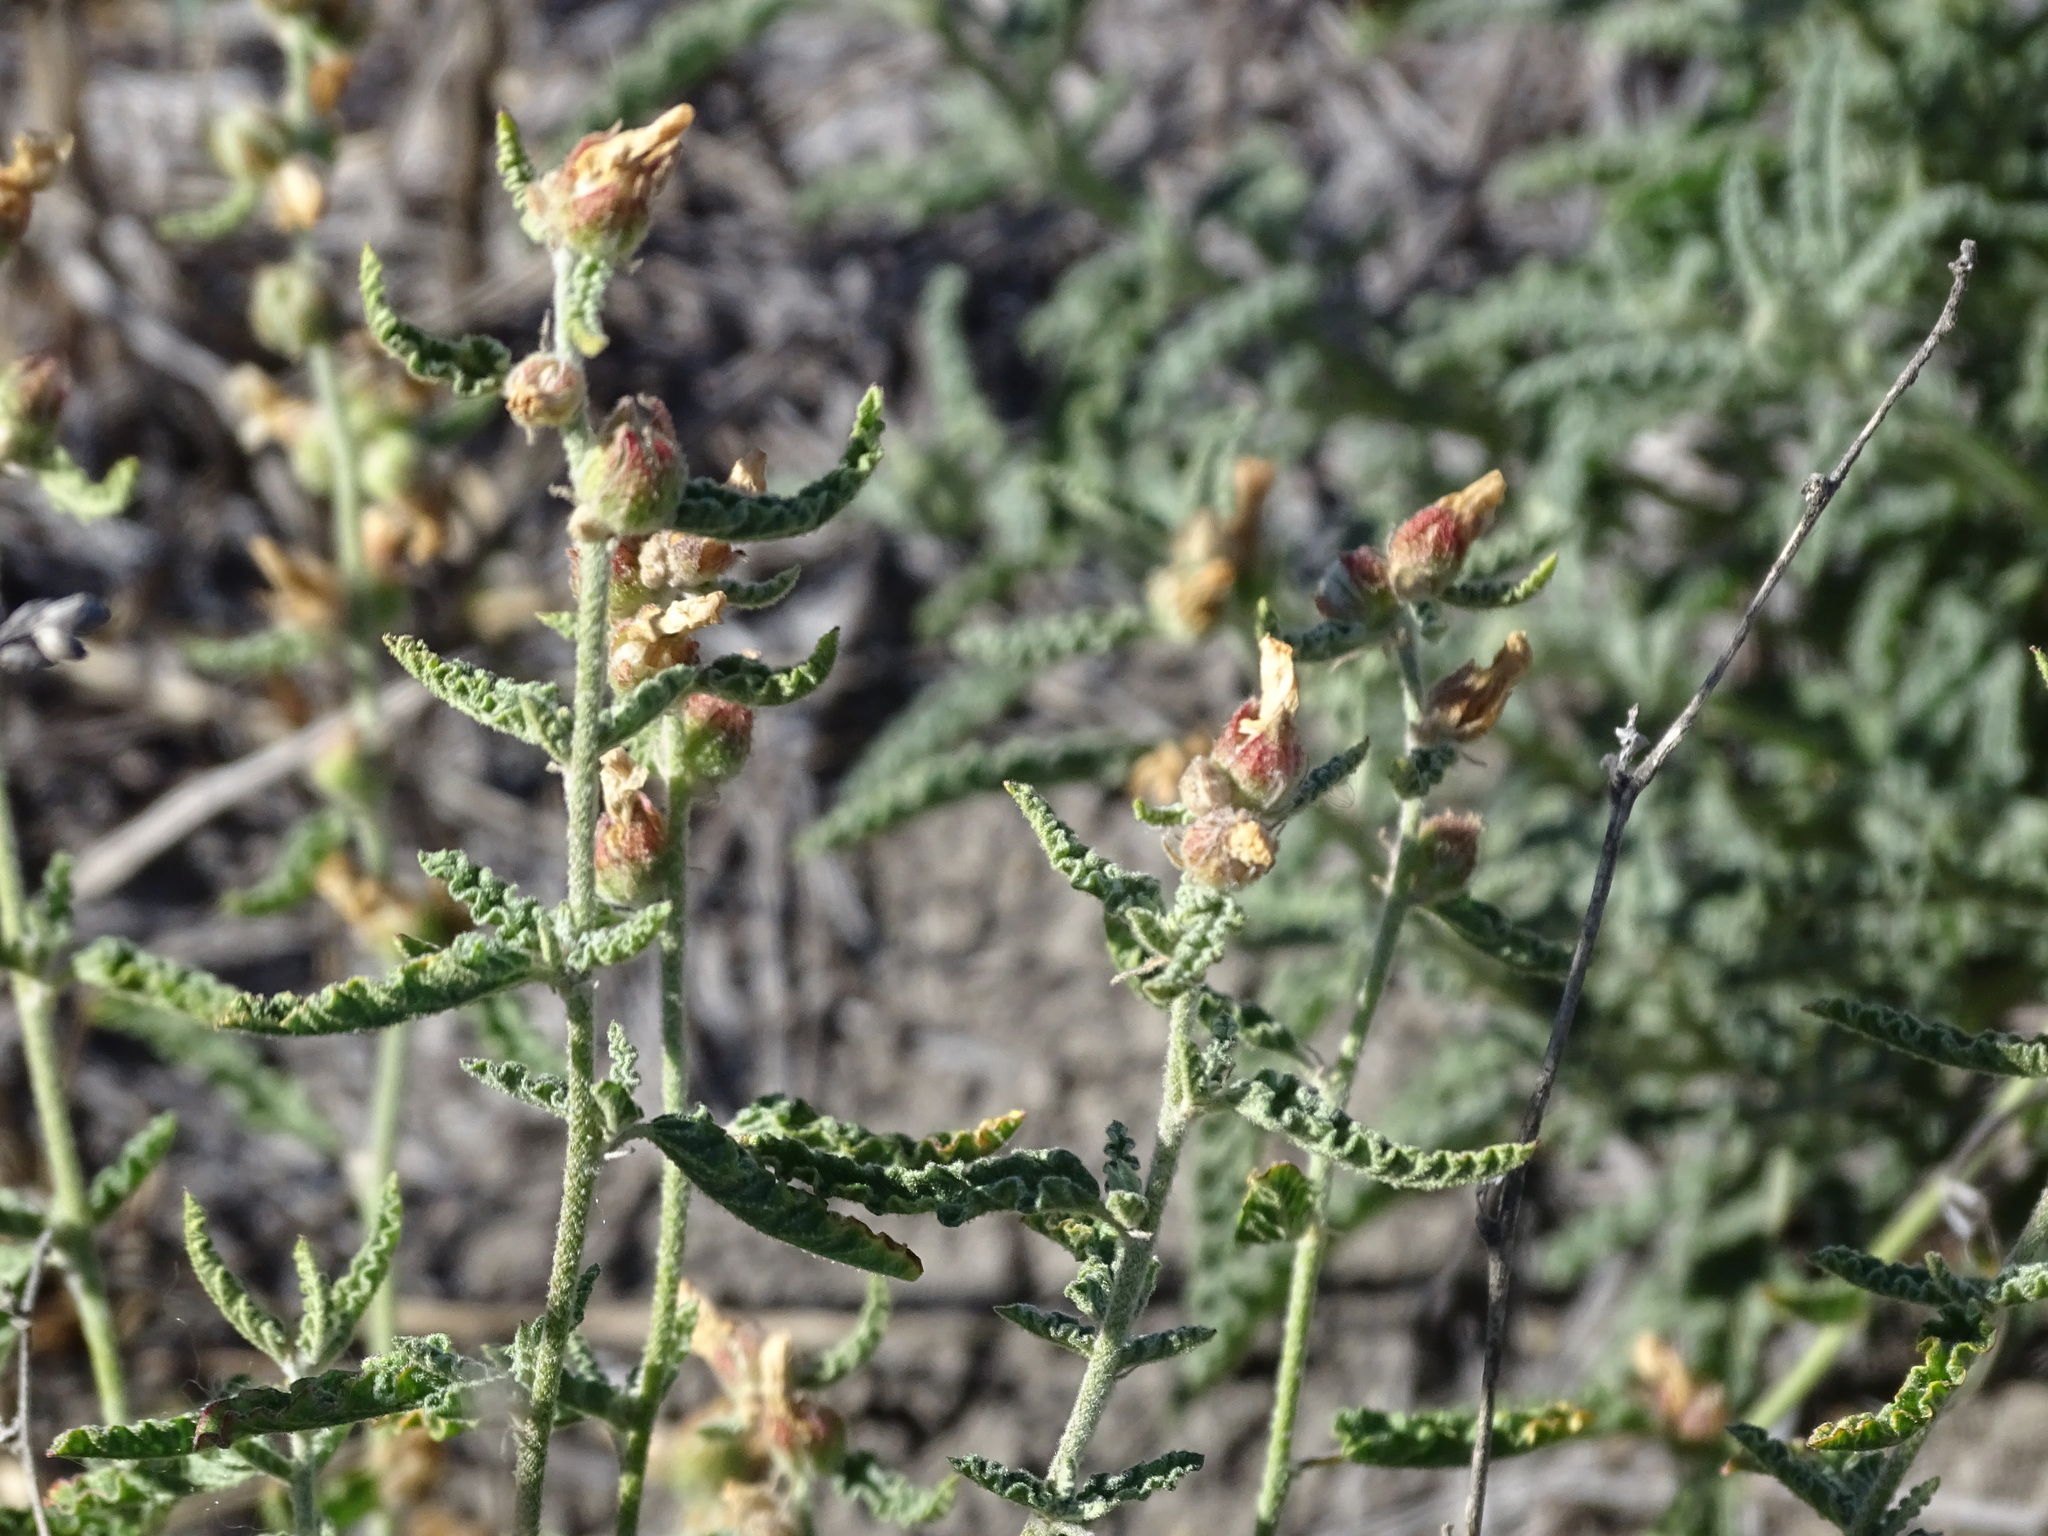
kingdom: Plantae
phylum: Tracheophyta
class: Magnoliopsida
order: Malvales
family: Malvaceae
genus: Sphaeralcea
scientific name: Sphaeralcea angustifolia
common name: Copper globe-mallow
